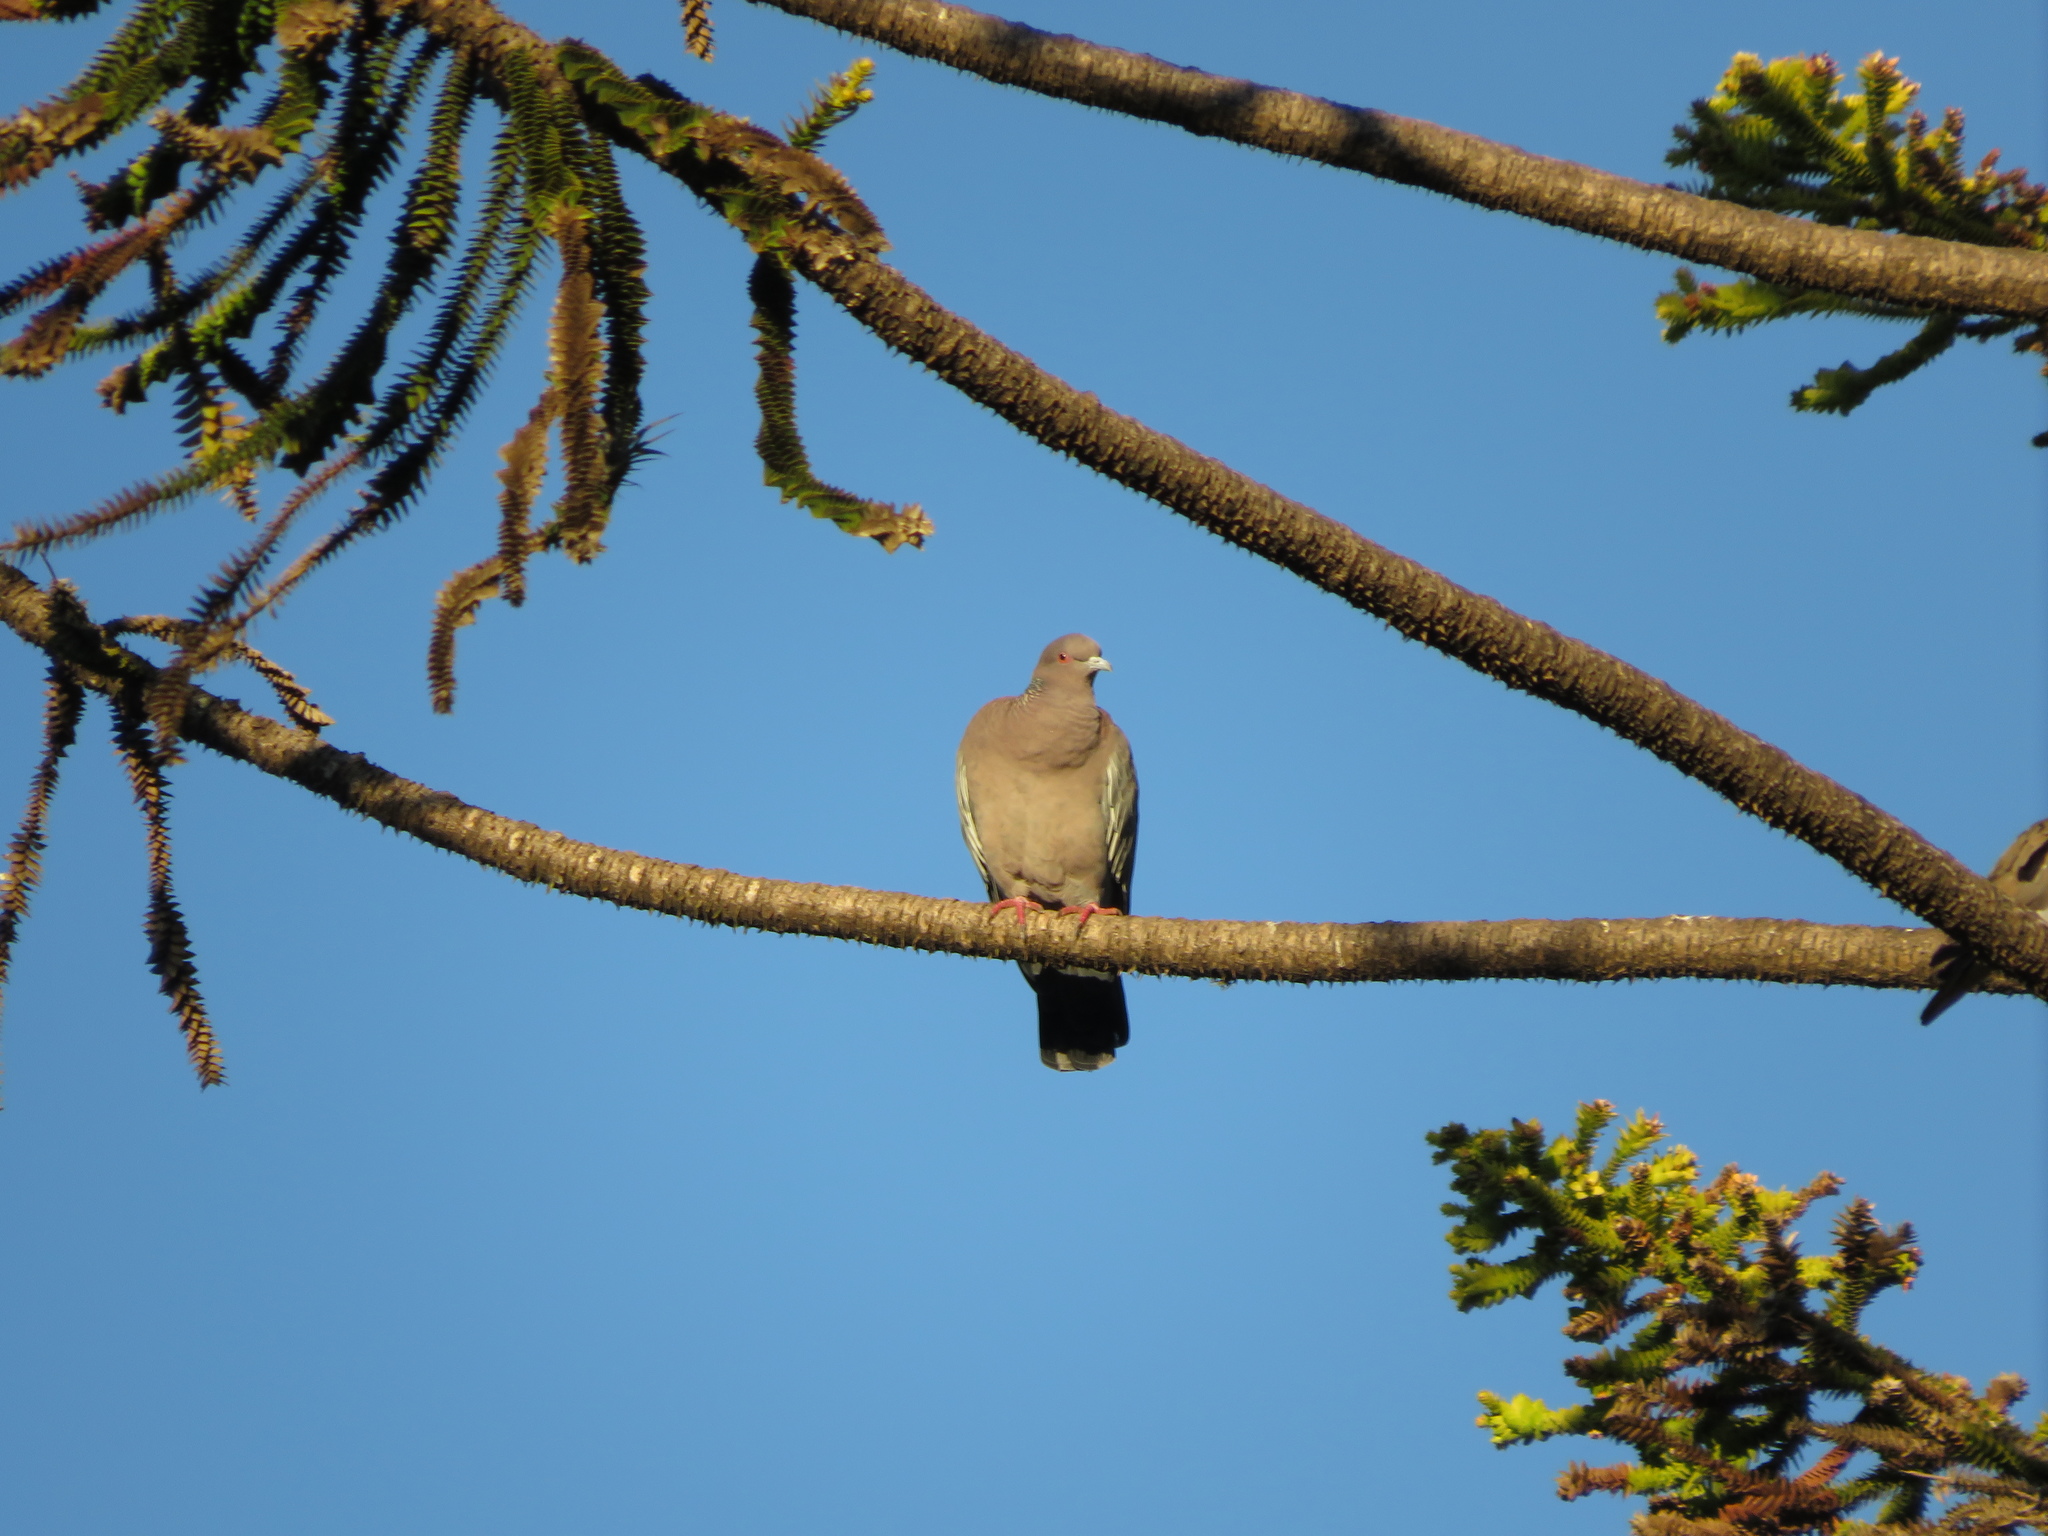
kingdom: Animalia
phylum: Chordata
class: Aves
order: Columbiformes
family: Columbidae
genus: Patagioenas
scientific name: Patagioenas picazuro
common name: Picazuro pigeon
